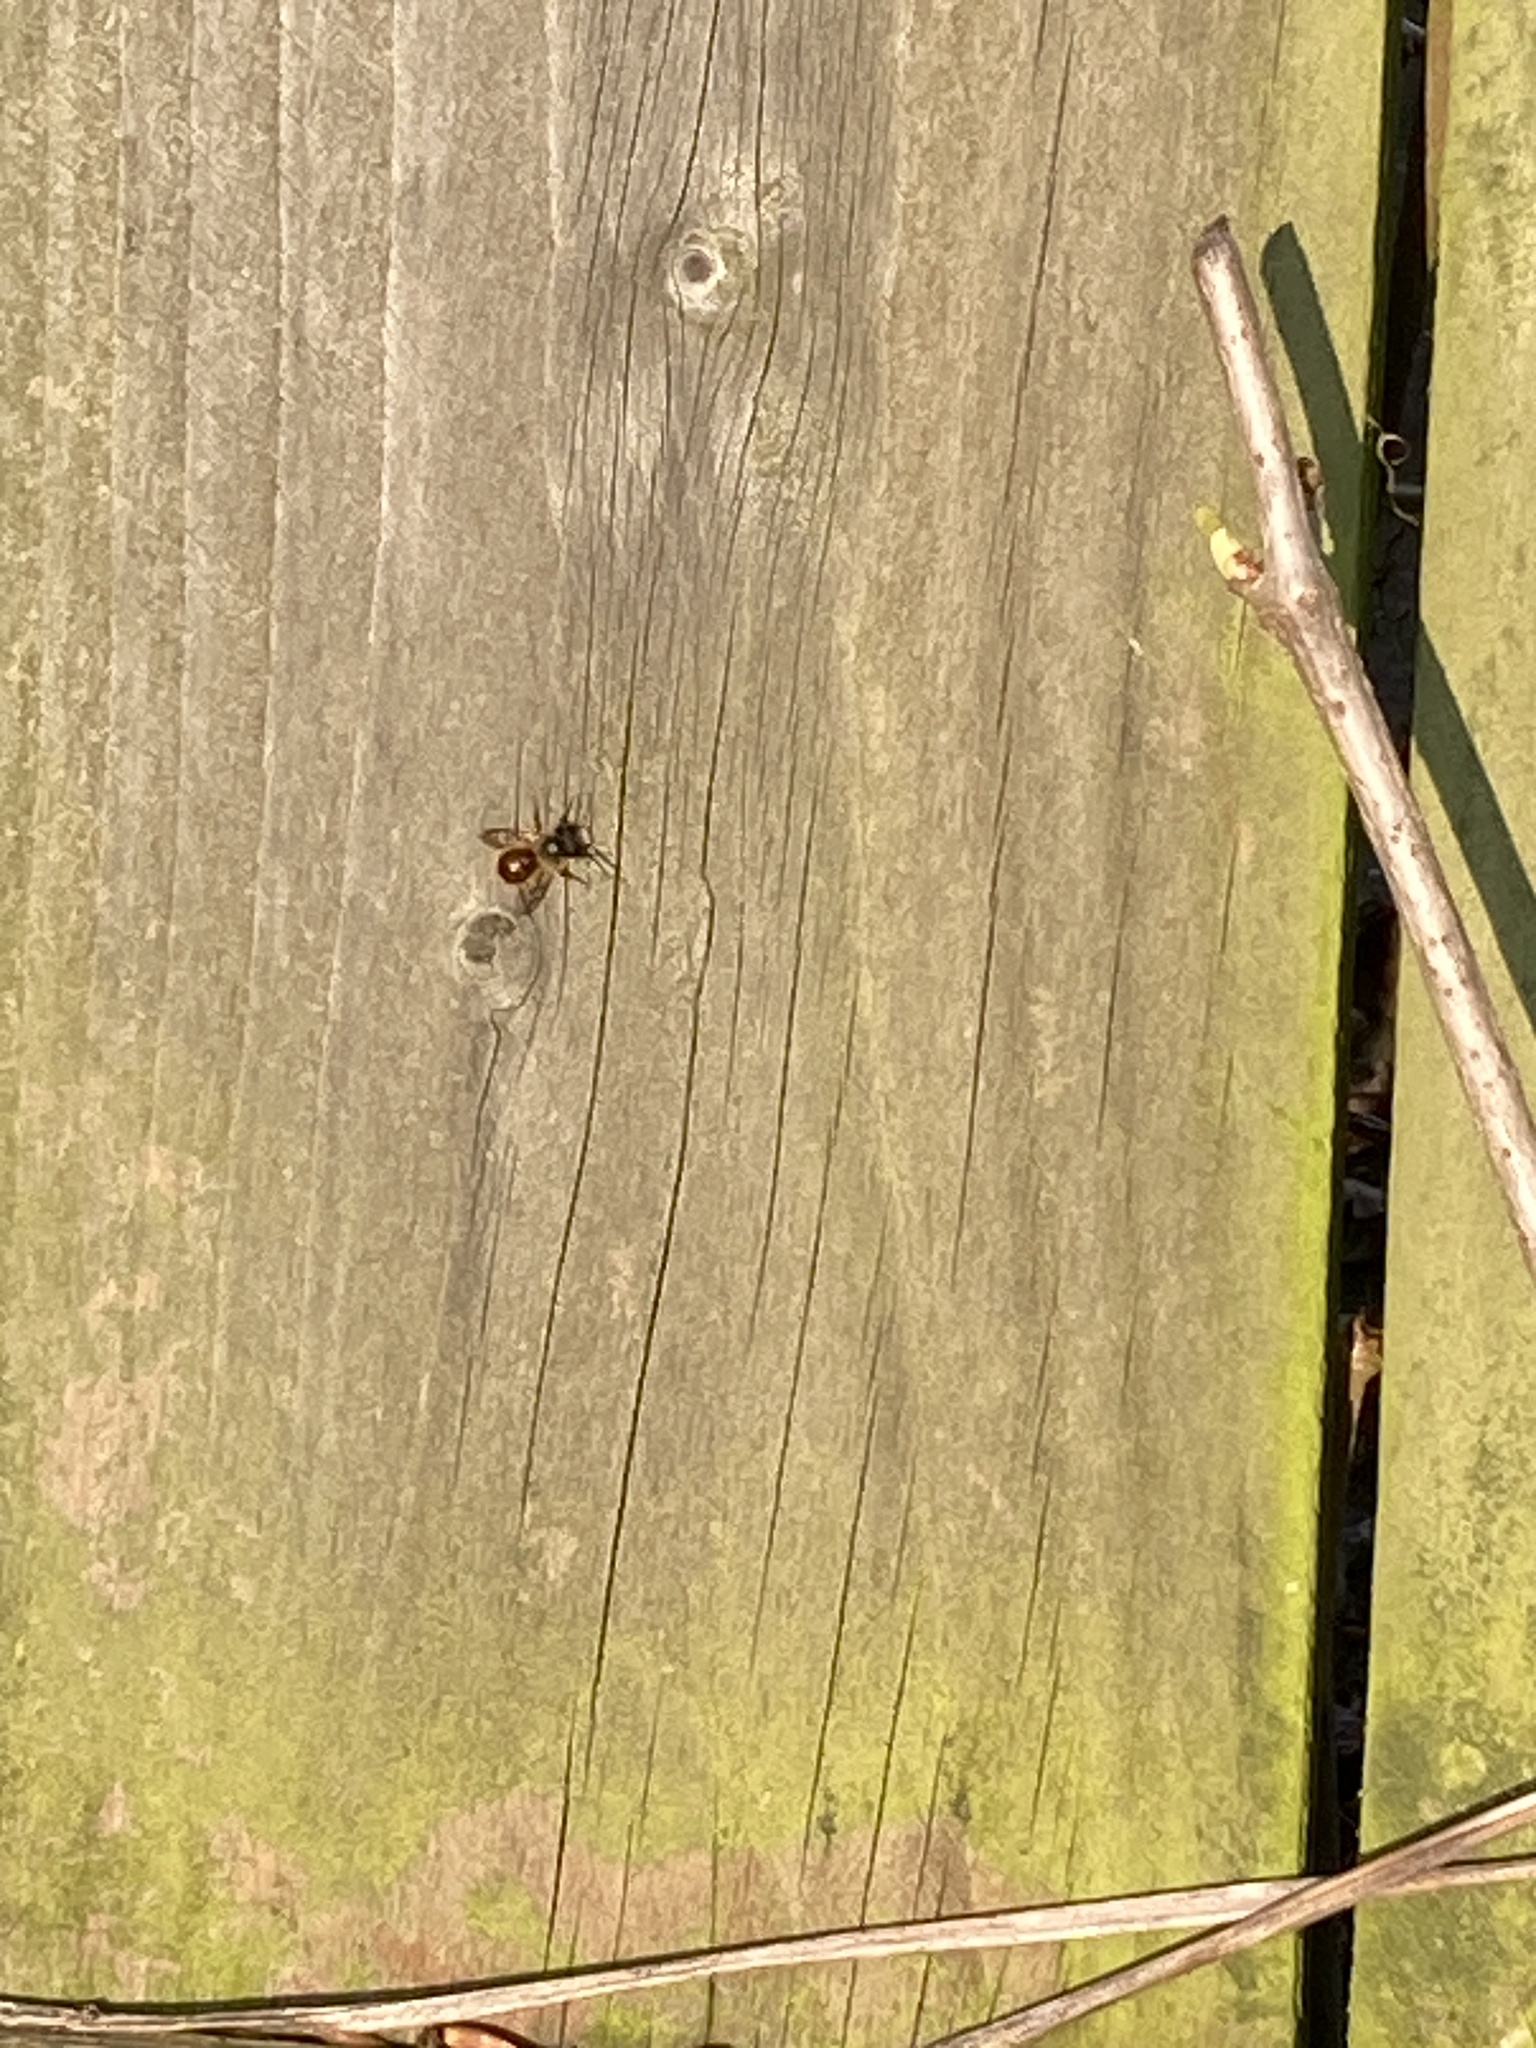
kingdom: Animalia
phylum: Arthropoda
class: Insecta
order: Hymenoptera
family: Megachilidae
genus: Osmia
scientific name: Osmia bicornis
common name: Red mason bee
